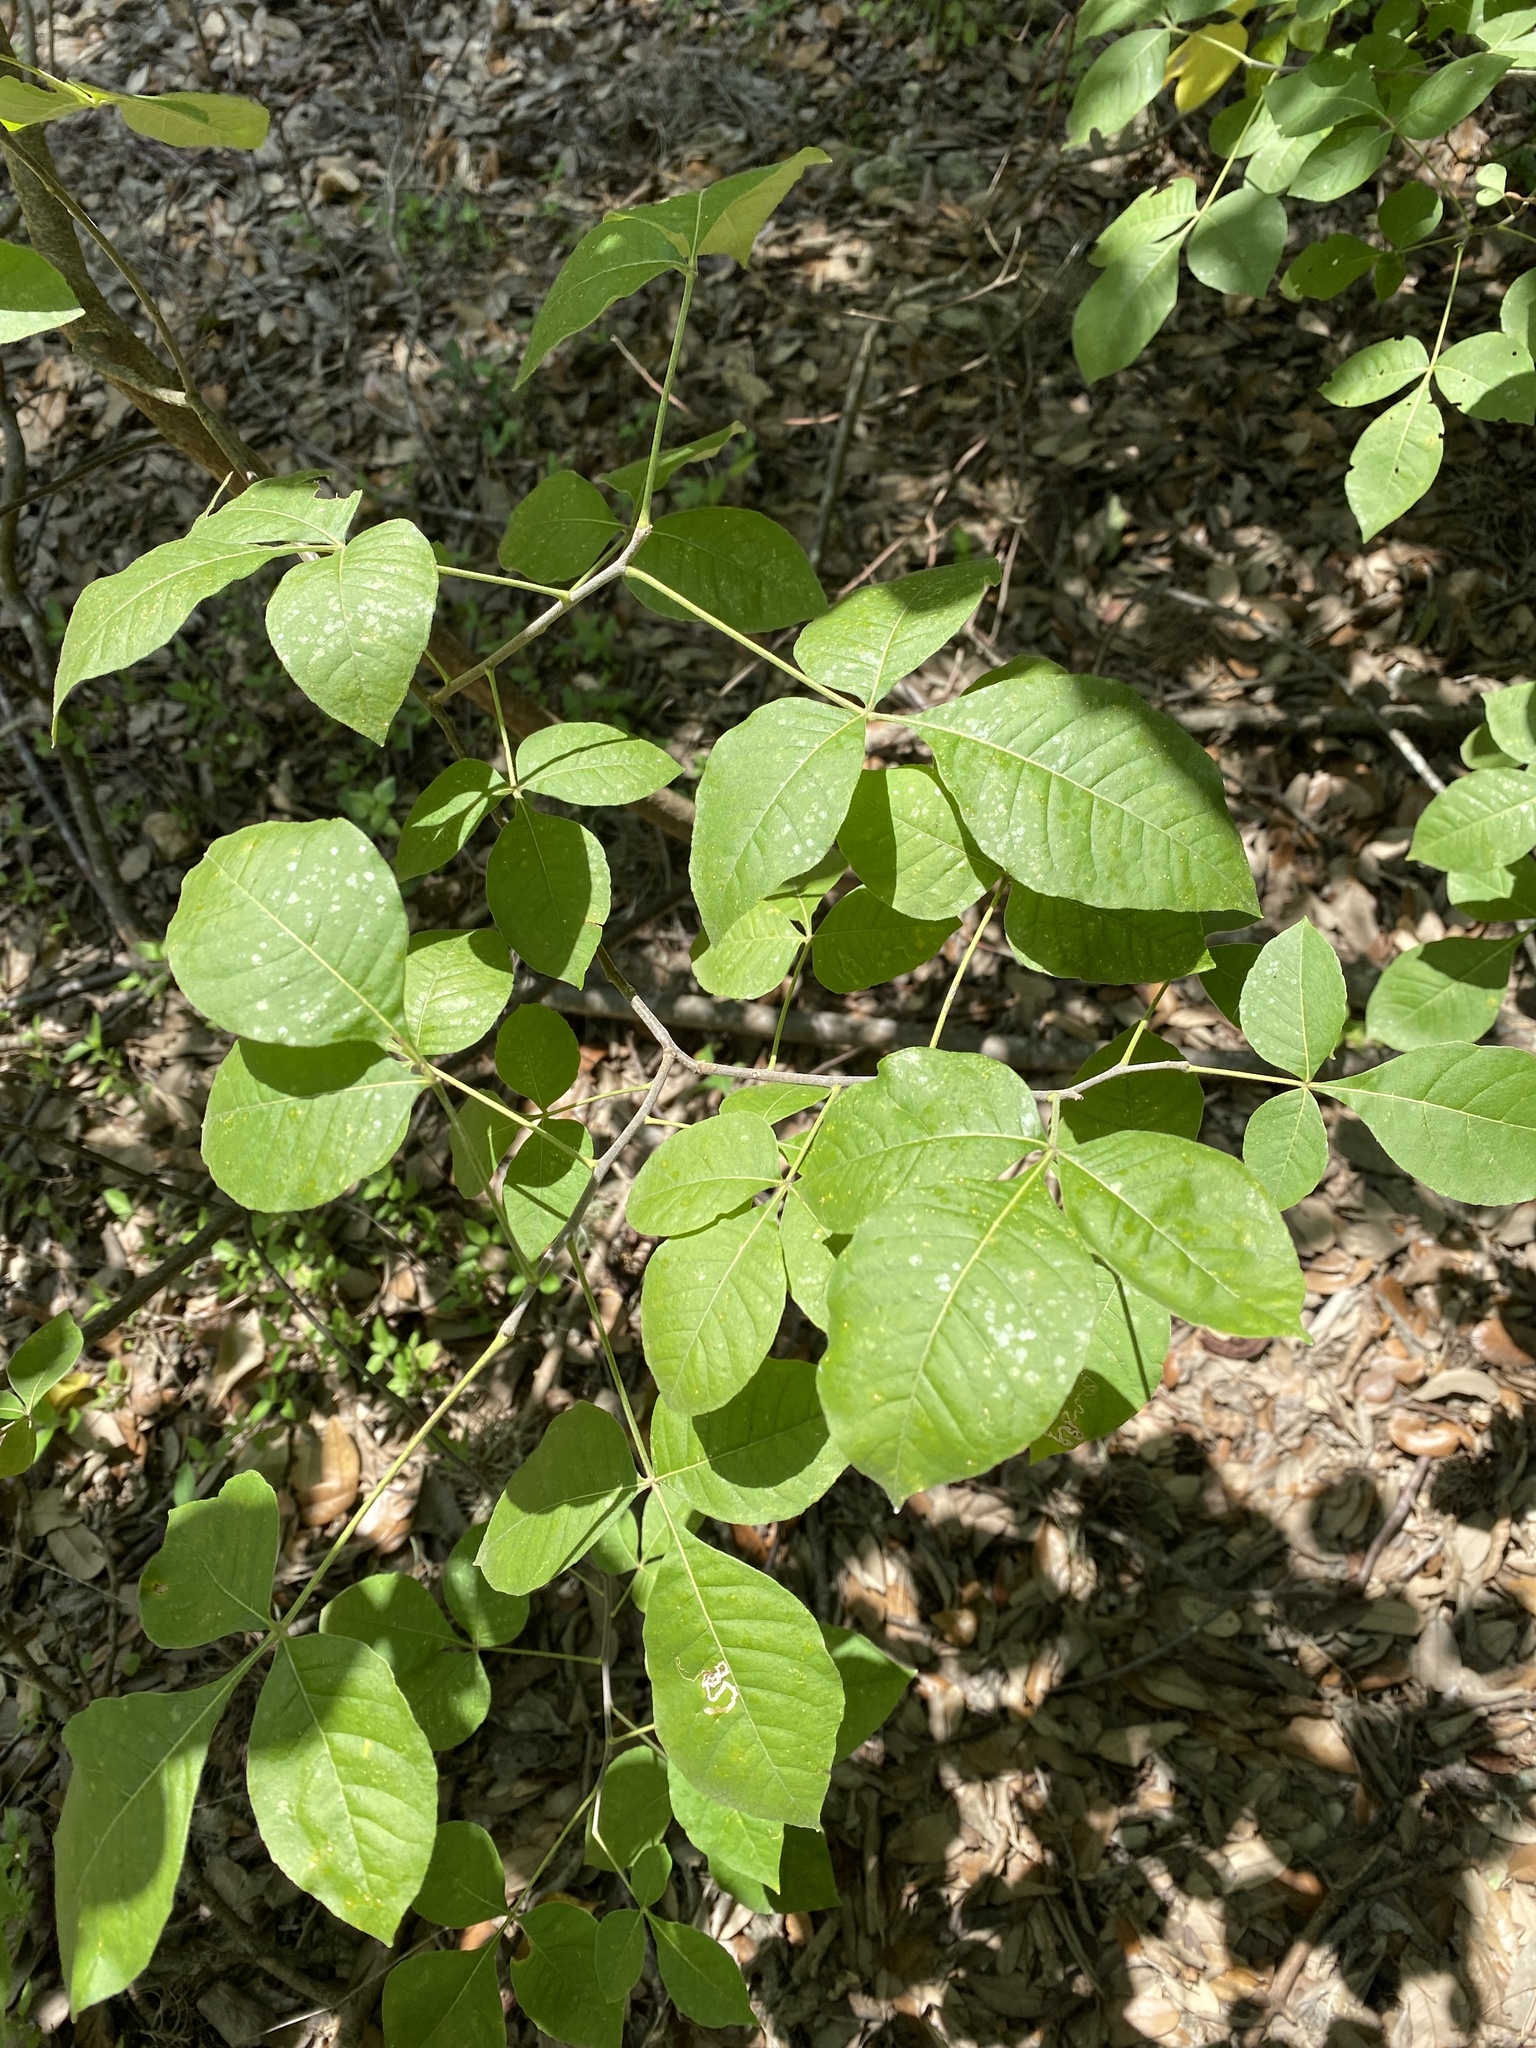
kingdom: Plantae
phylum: Tracheophyta
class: Magnoliopsida
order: Sapindales
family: Rutaceae
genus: Ptelea
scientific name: Ptelea trifoliata
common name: Common hop-tree
